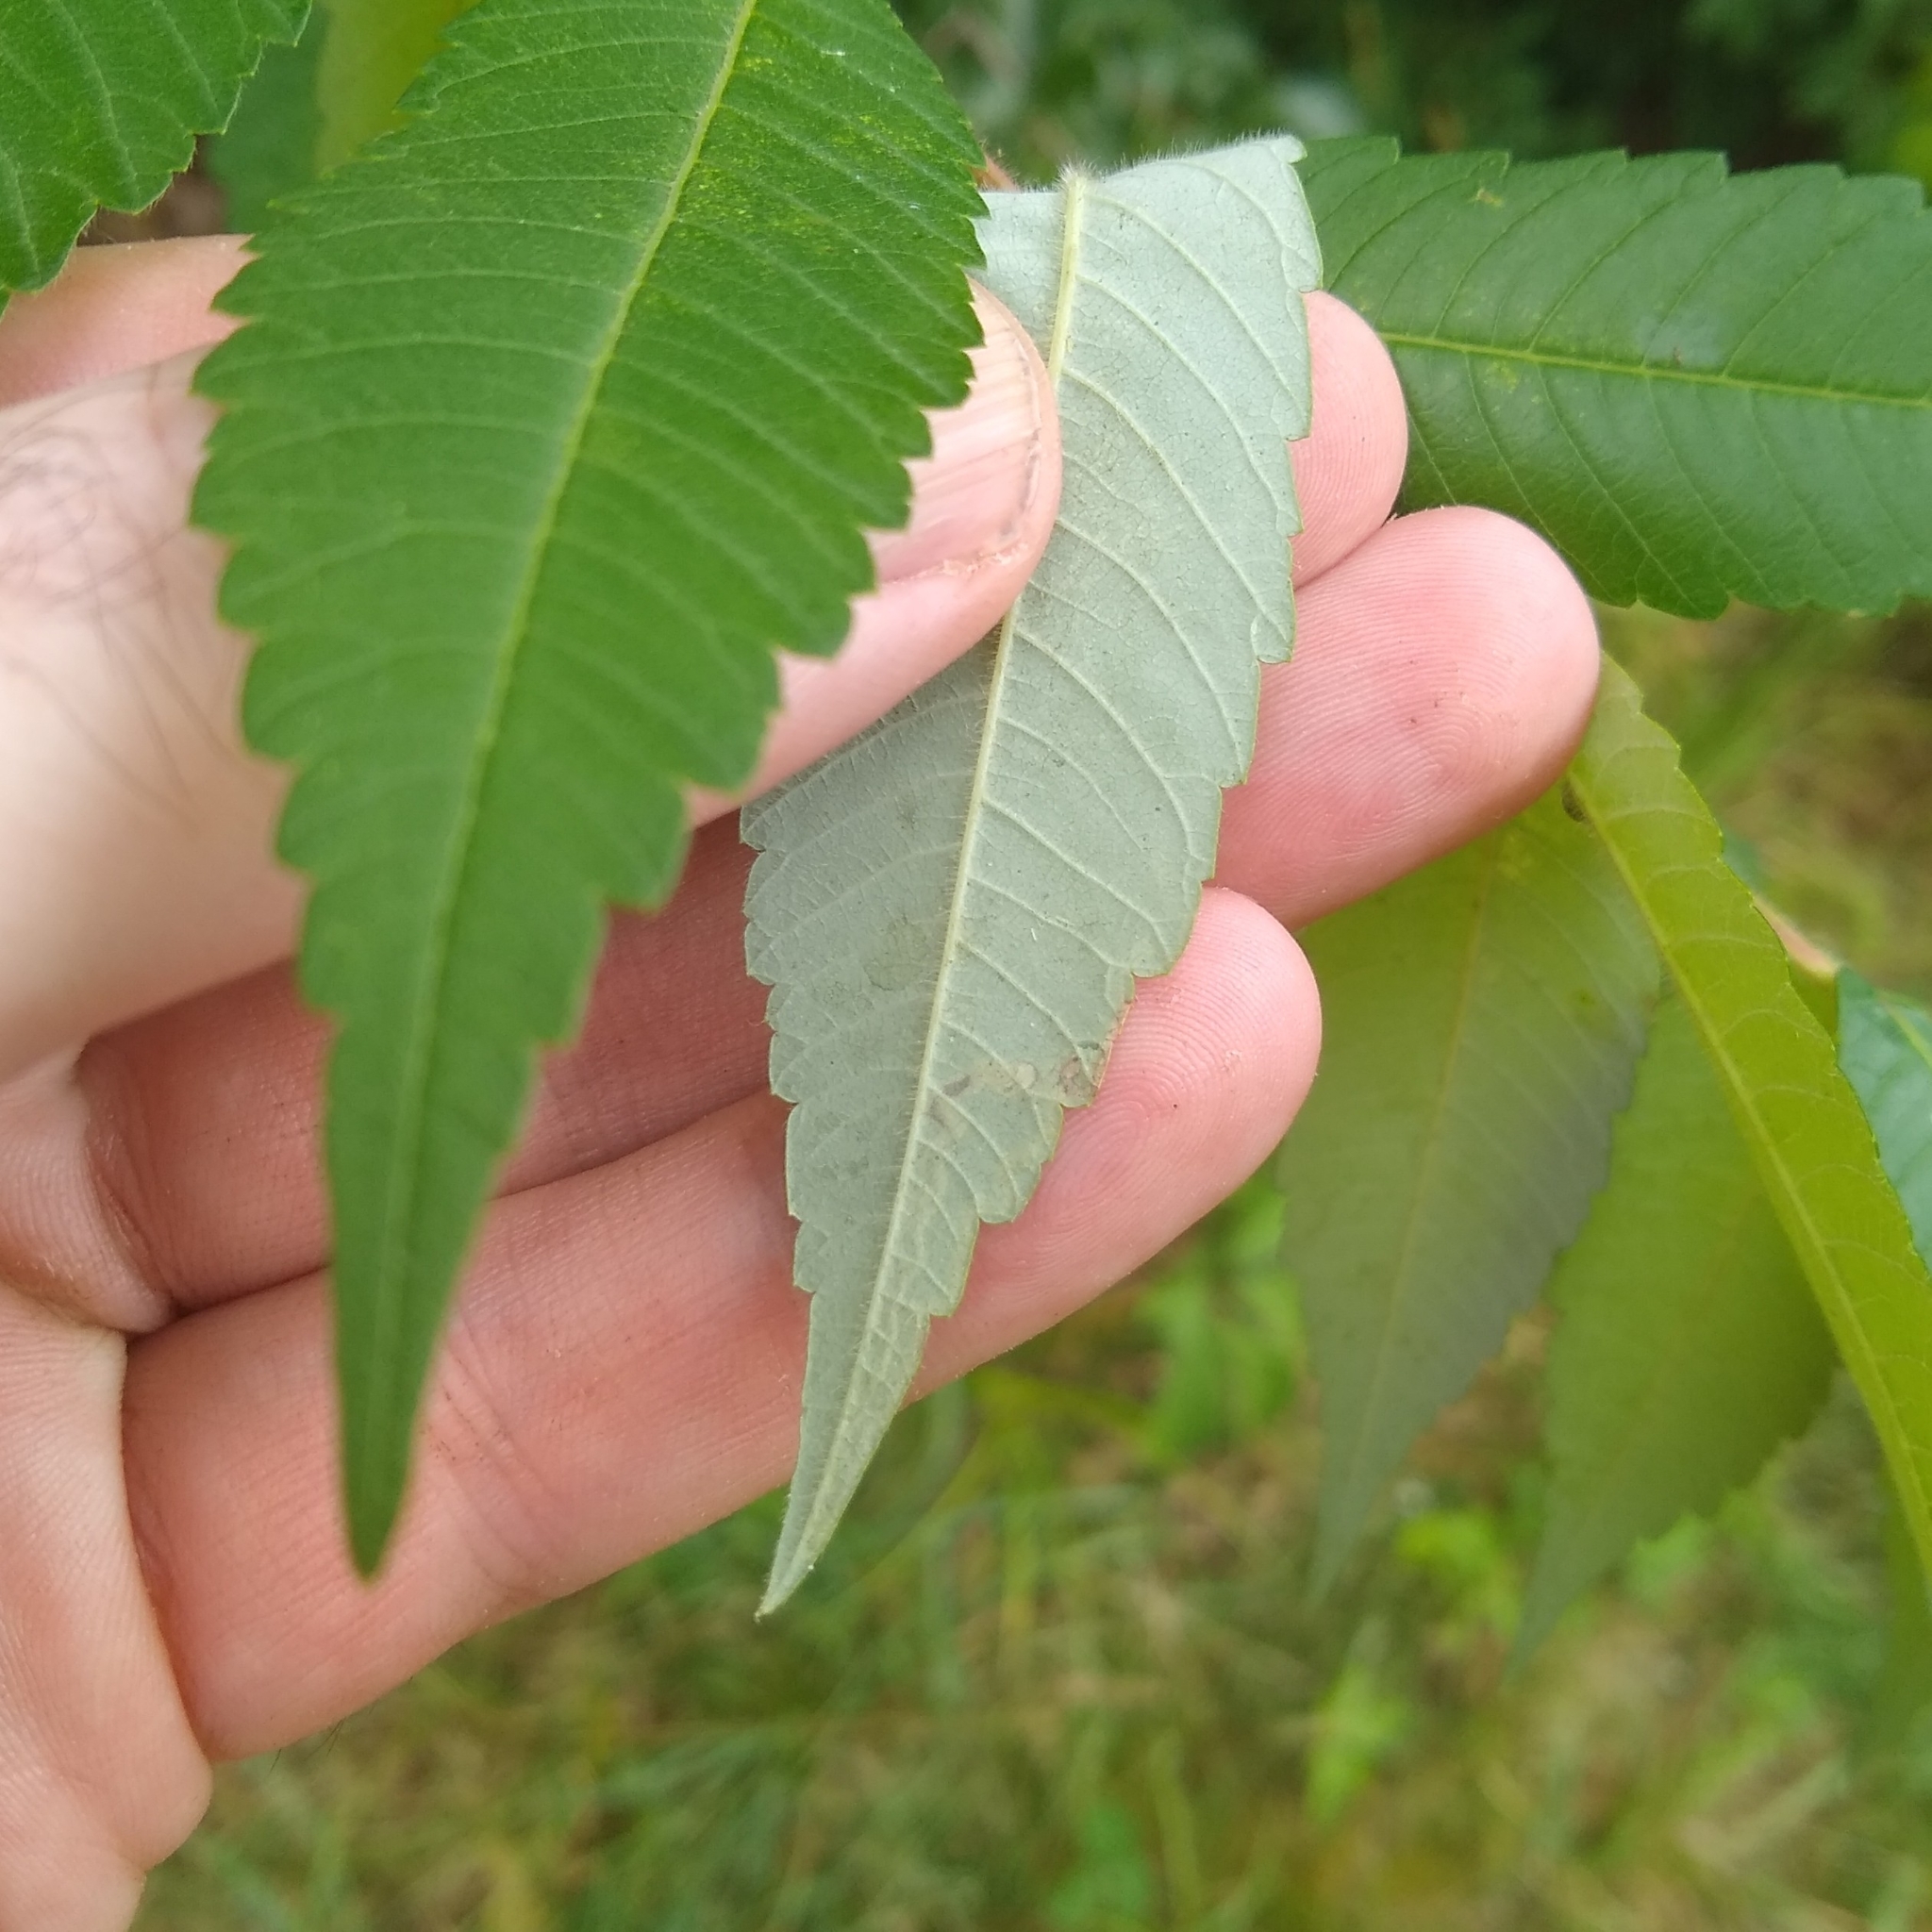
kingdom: Animalia
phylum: Arthropoda
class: Insecta
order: Lepidoptera
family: Nepticulidae
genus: Stigmella
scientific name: Stigmella intermedia
